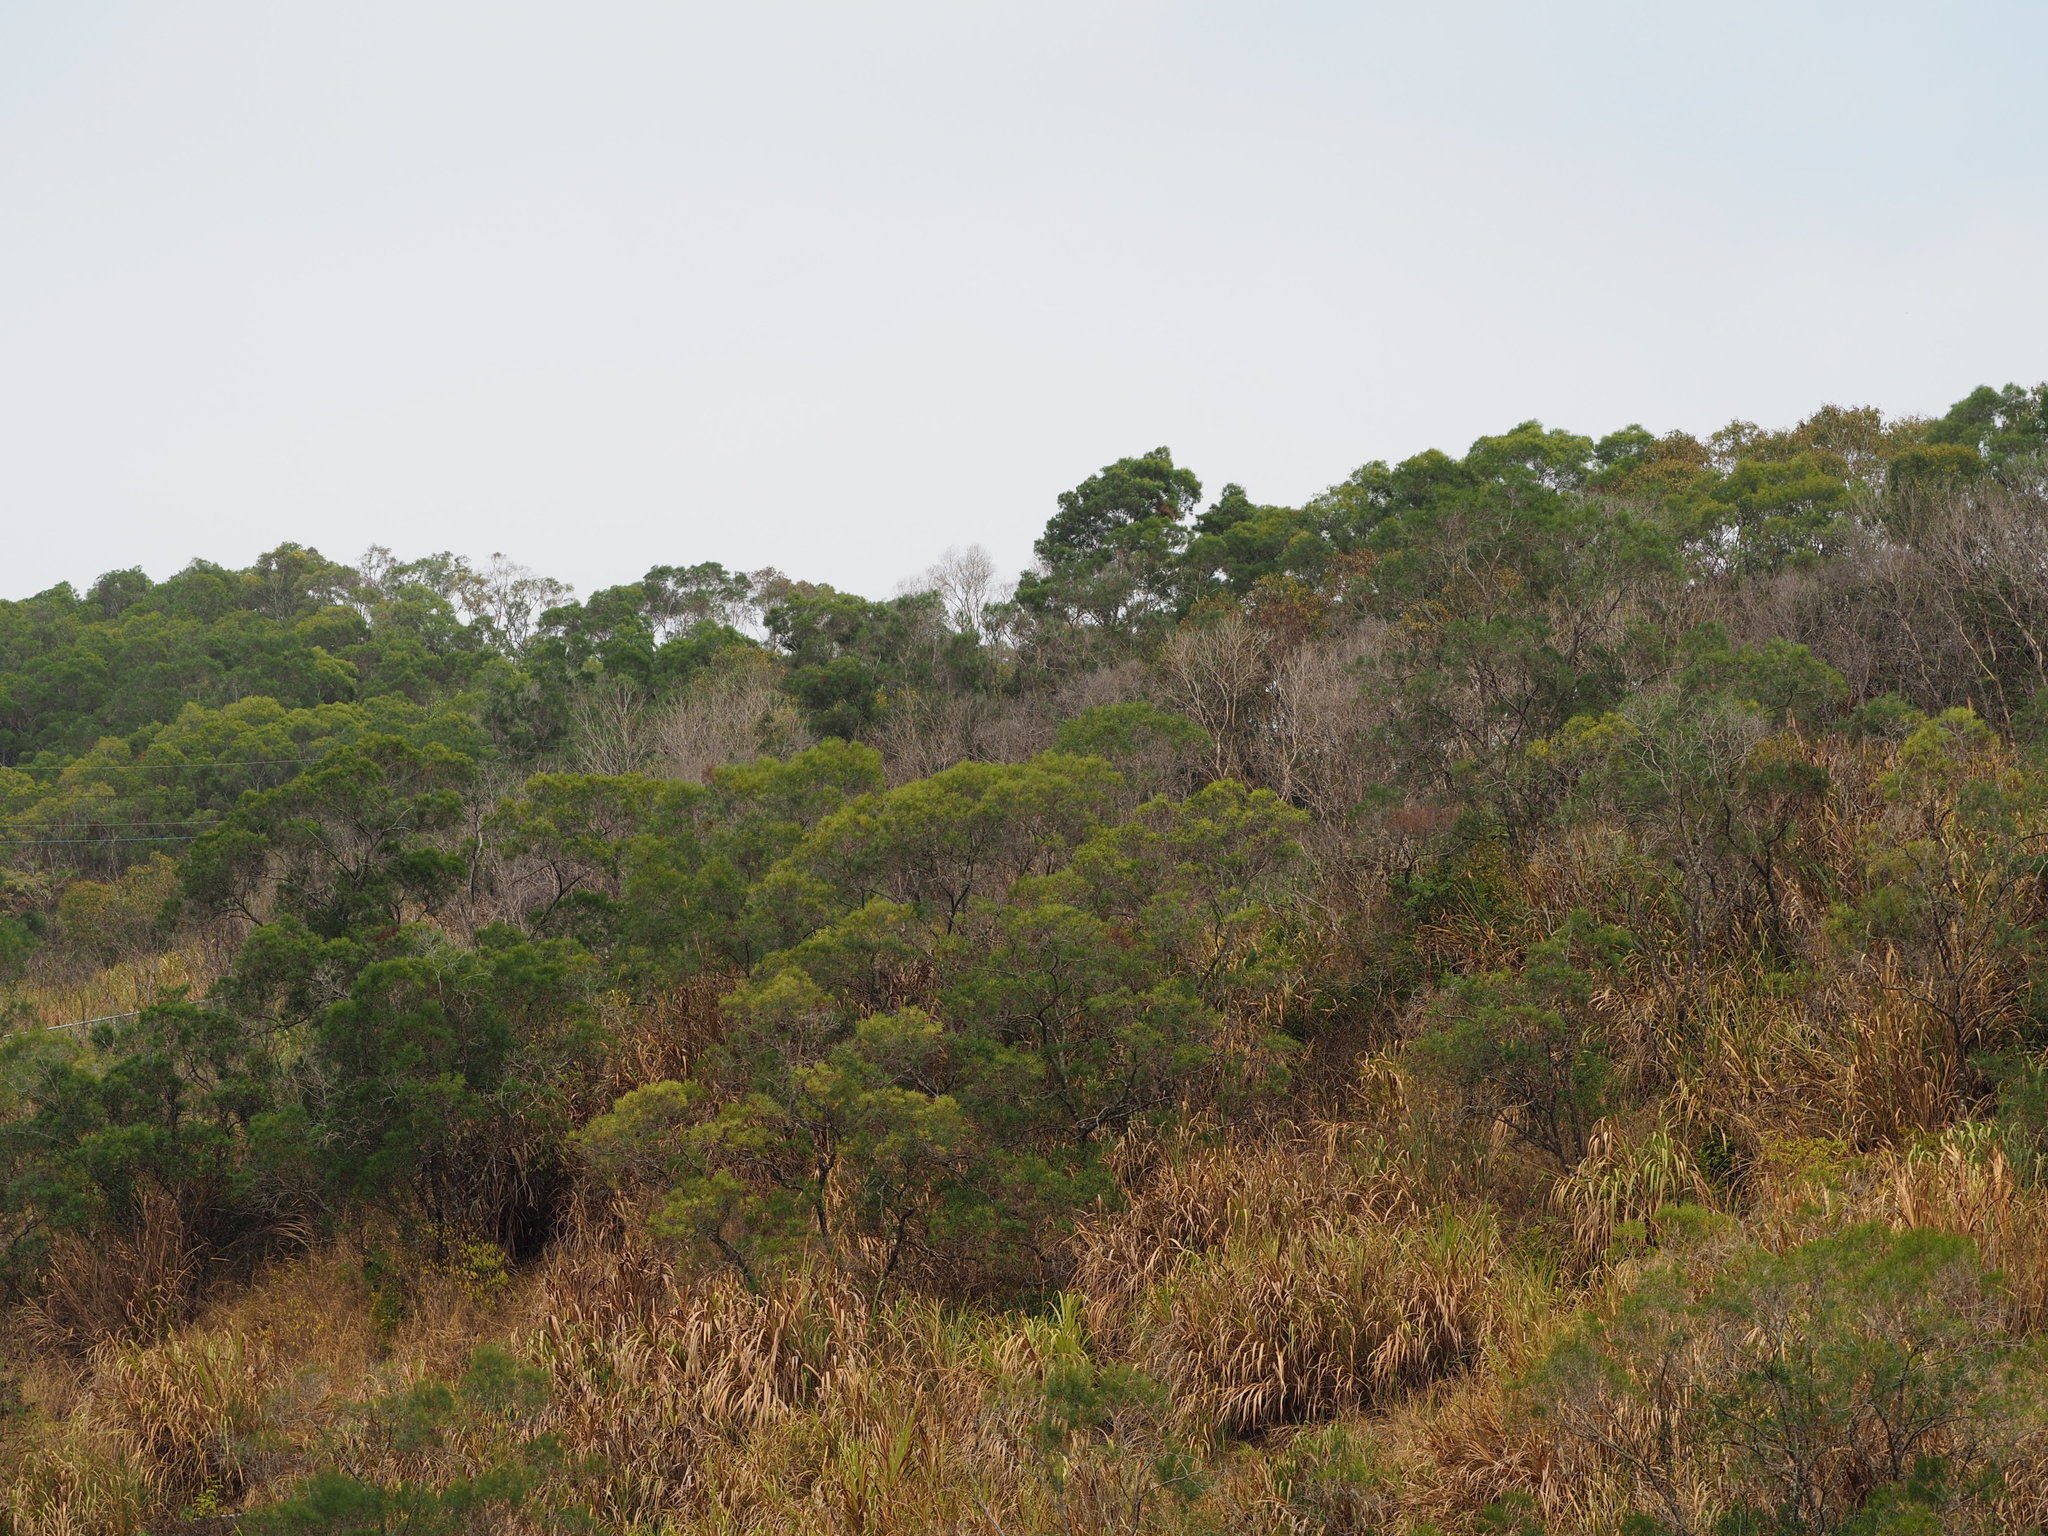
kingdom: Plantae
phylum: Tracheophyta
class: Magnoliopsida
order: Fabales
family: Fabaceae
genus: Acacia
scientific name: Acacia confusa
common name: Formosan koa
